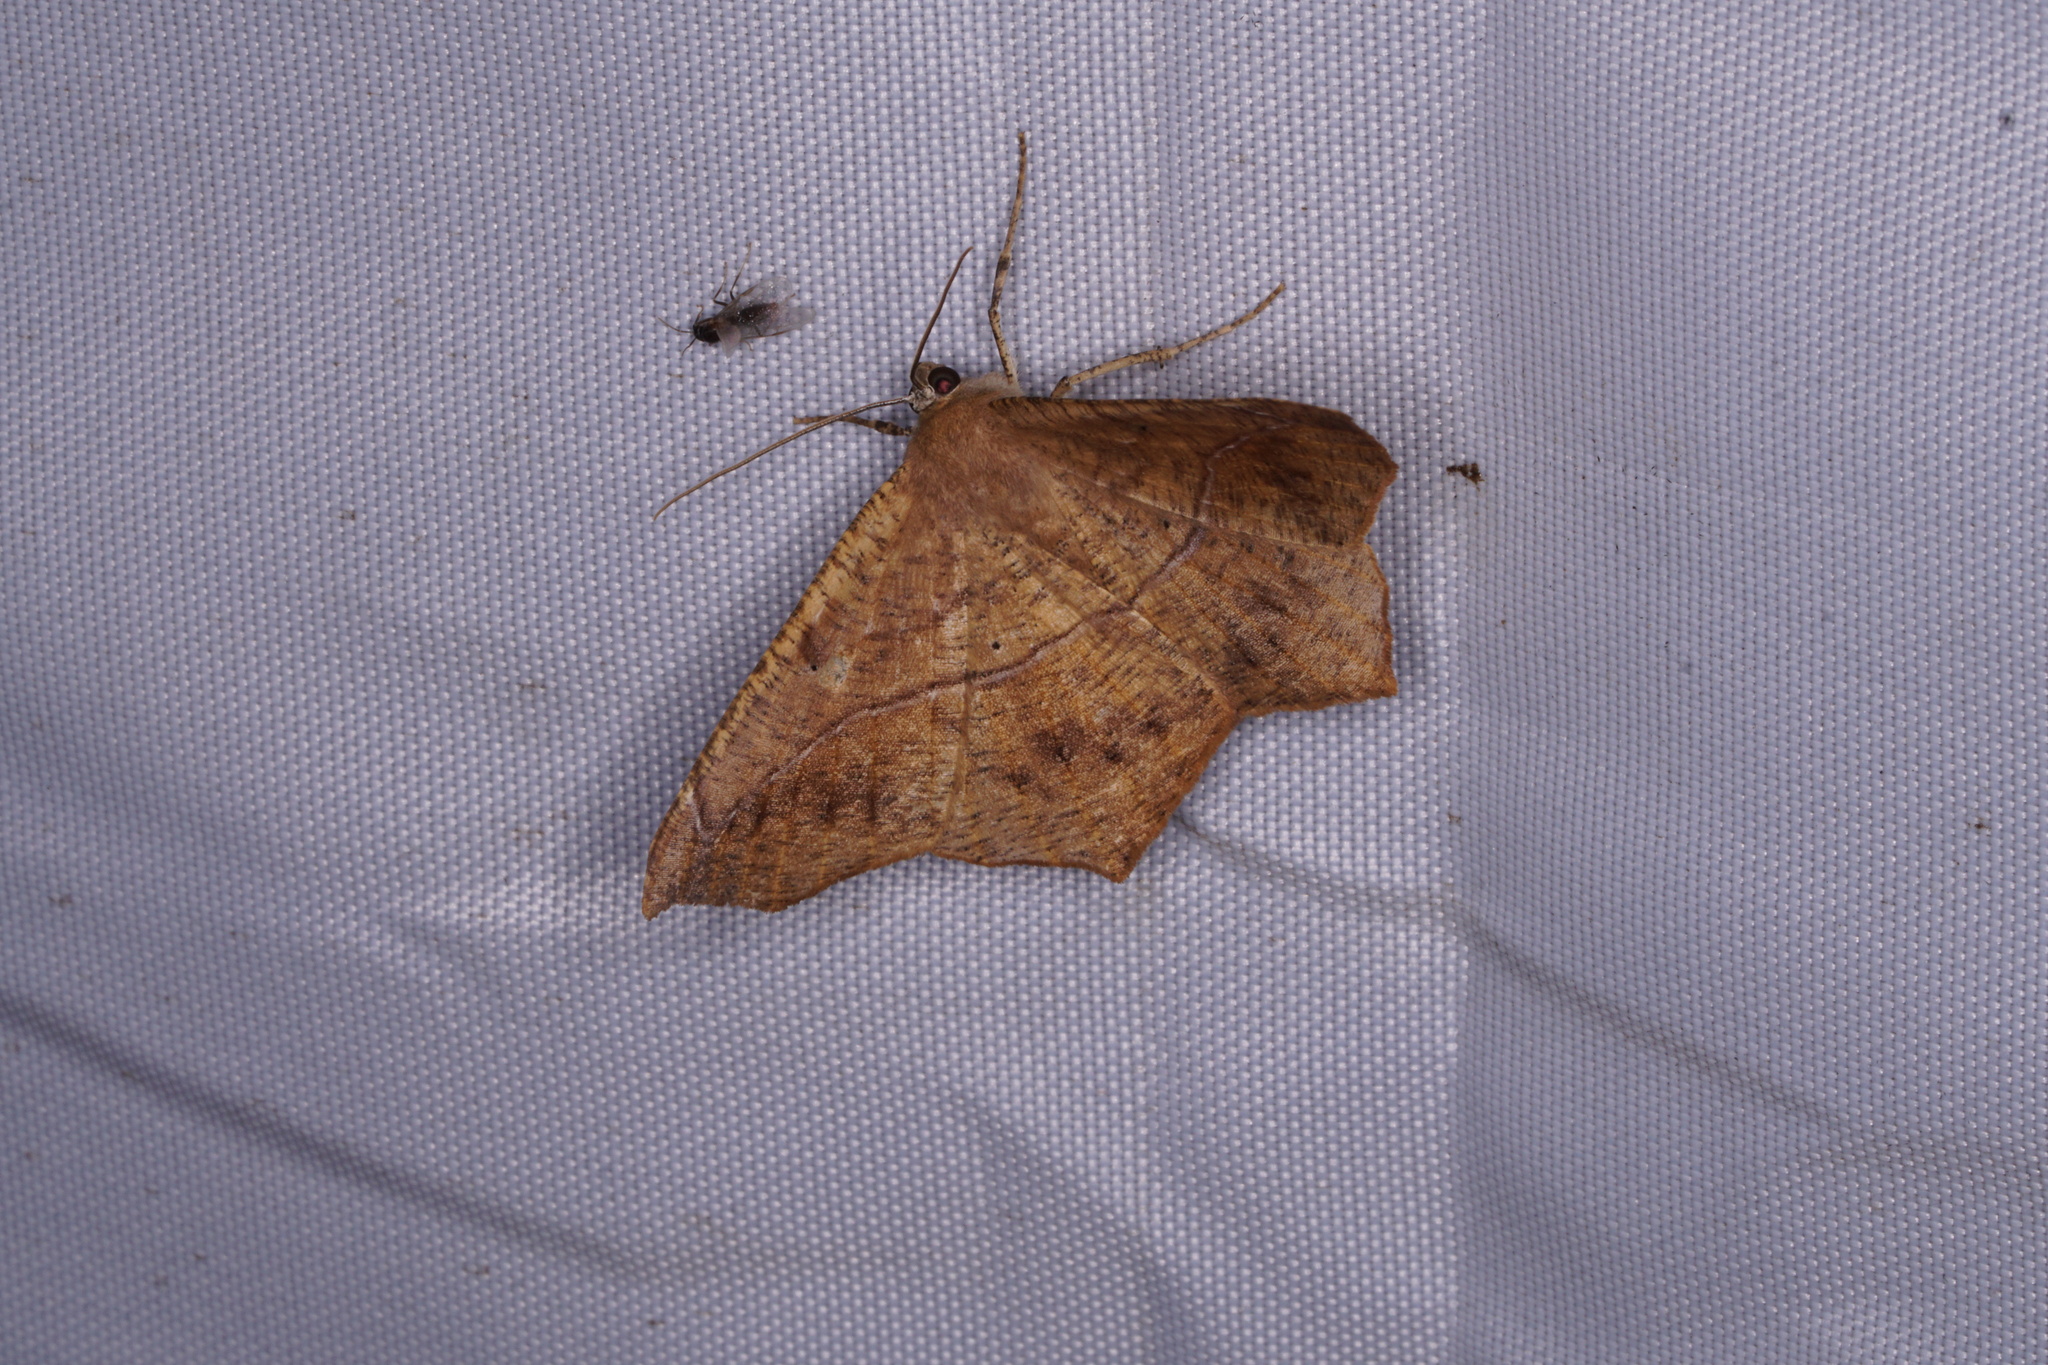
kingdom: Animalia
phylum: Arthropoda
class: Insecta
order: Lepidoptera
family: Geometridae
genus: Prochoerodes
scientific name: Prochoerodes lineola
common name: Large maple spanworm
